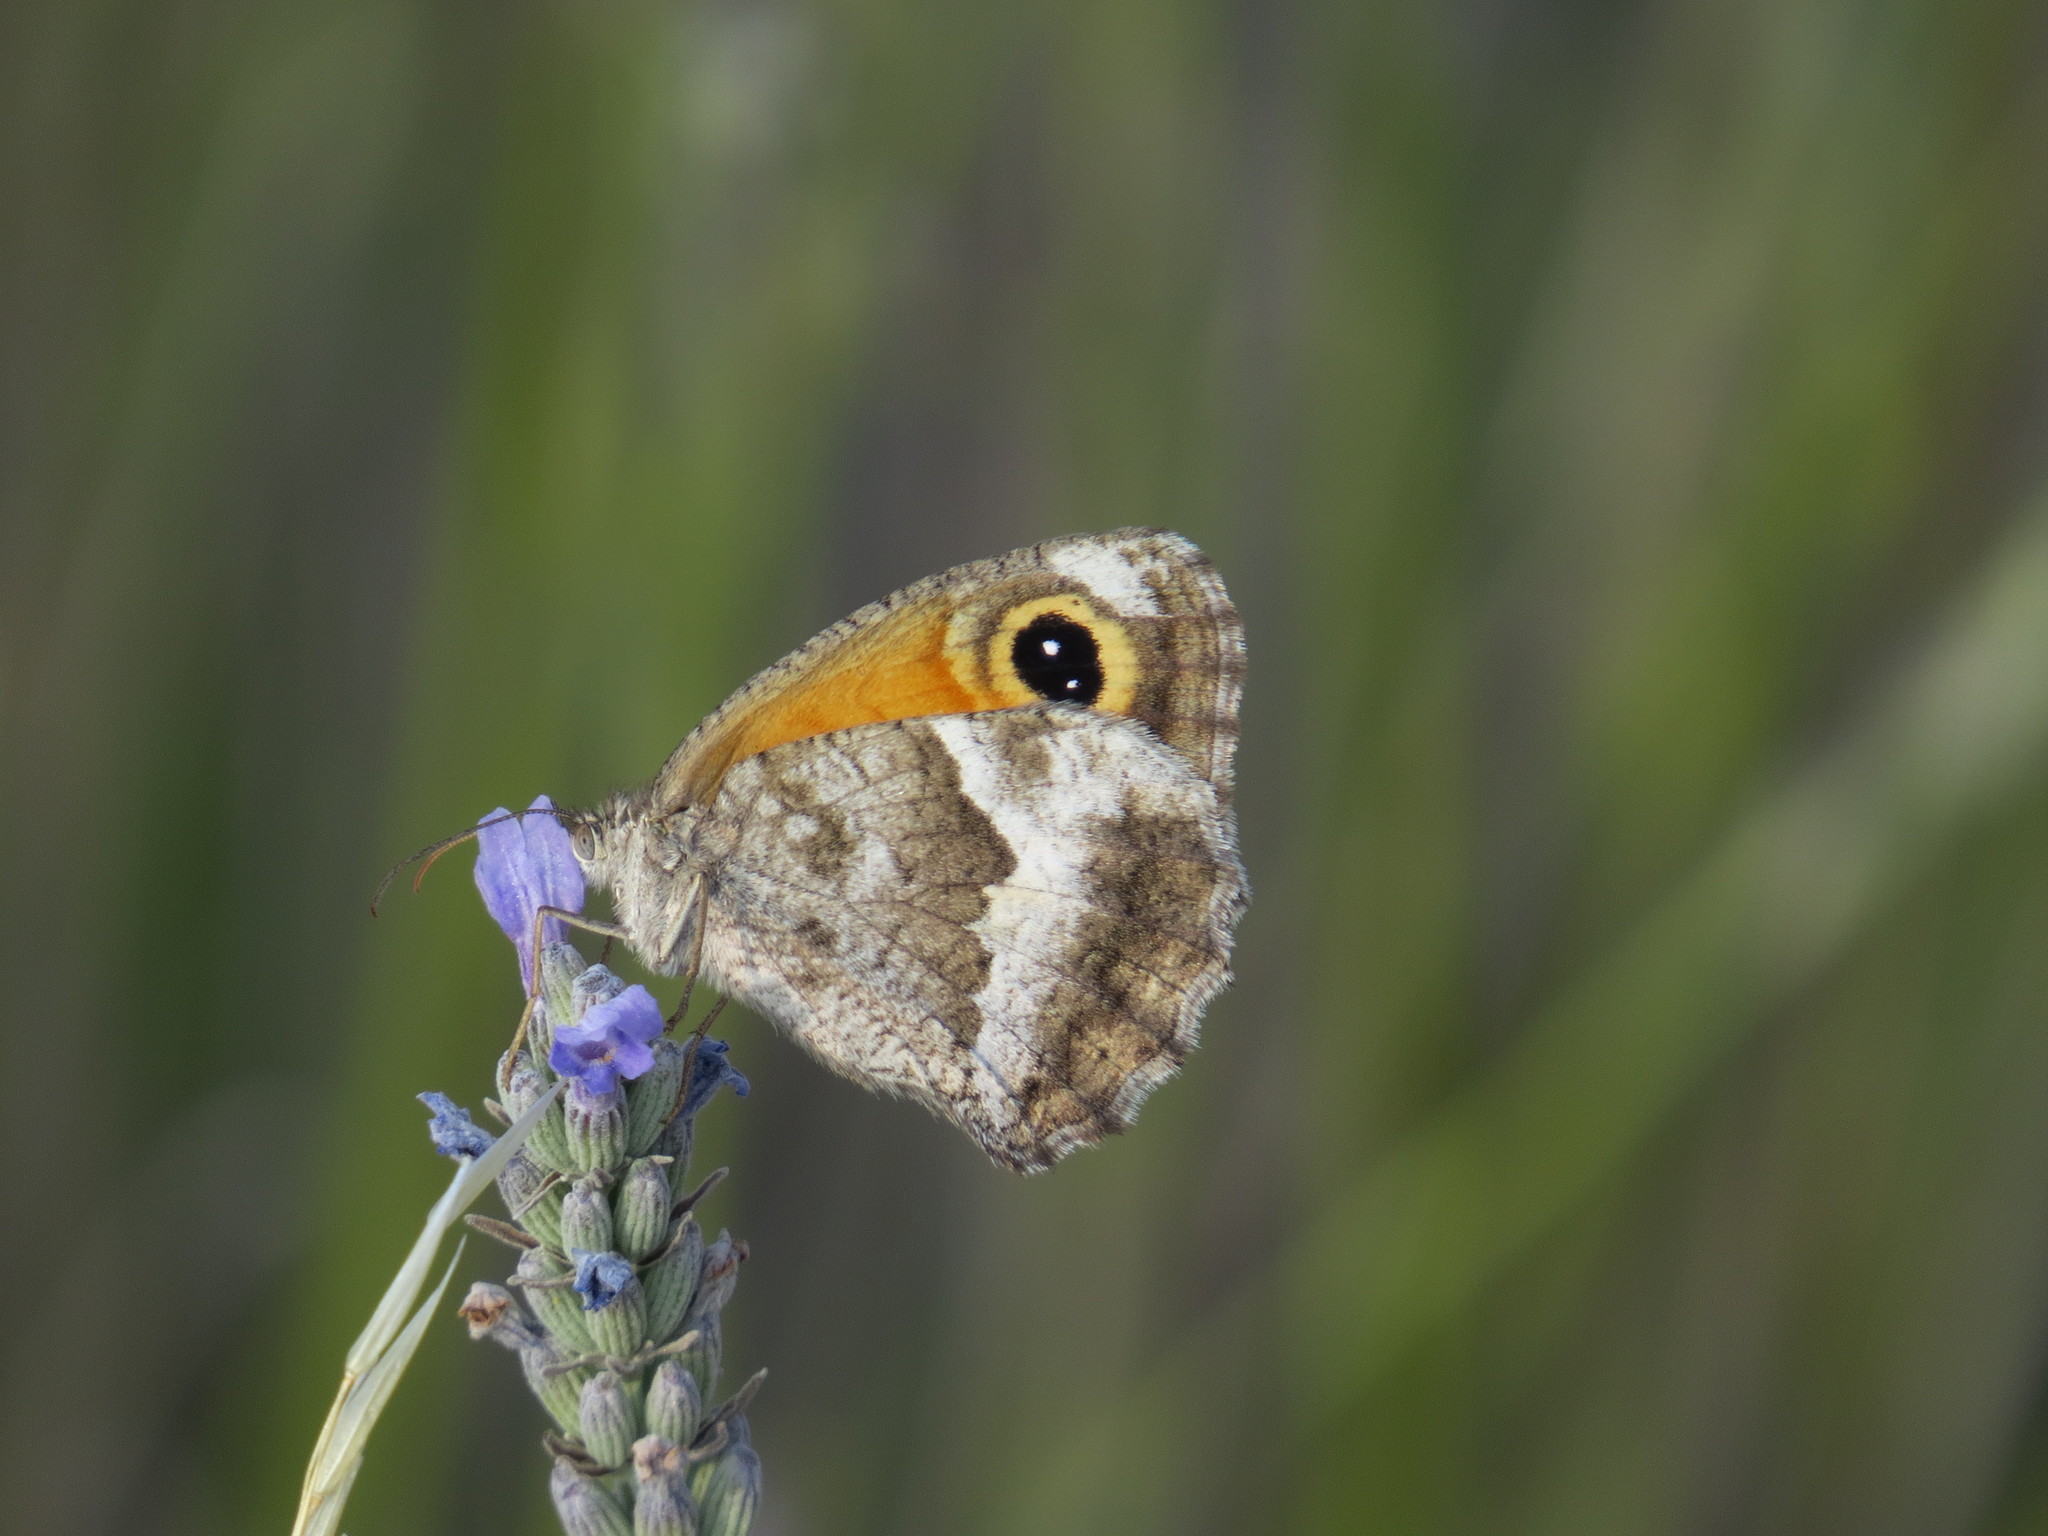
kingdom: Animalia
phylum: Arthropoda
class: Insecta
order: Lepidoptera
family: Nymphalidae
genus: Pyronia
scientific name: Pyronia cecilia
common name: Southern gatekeeper
